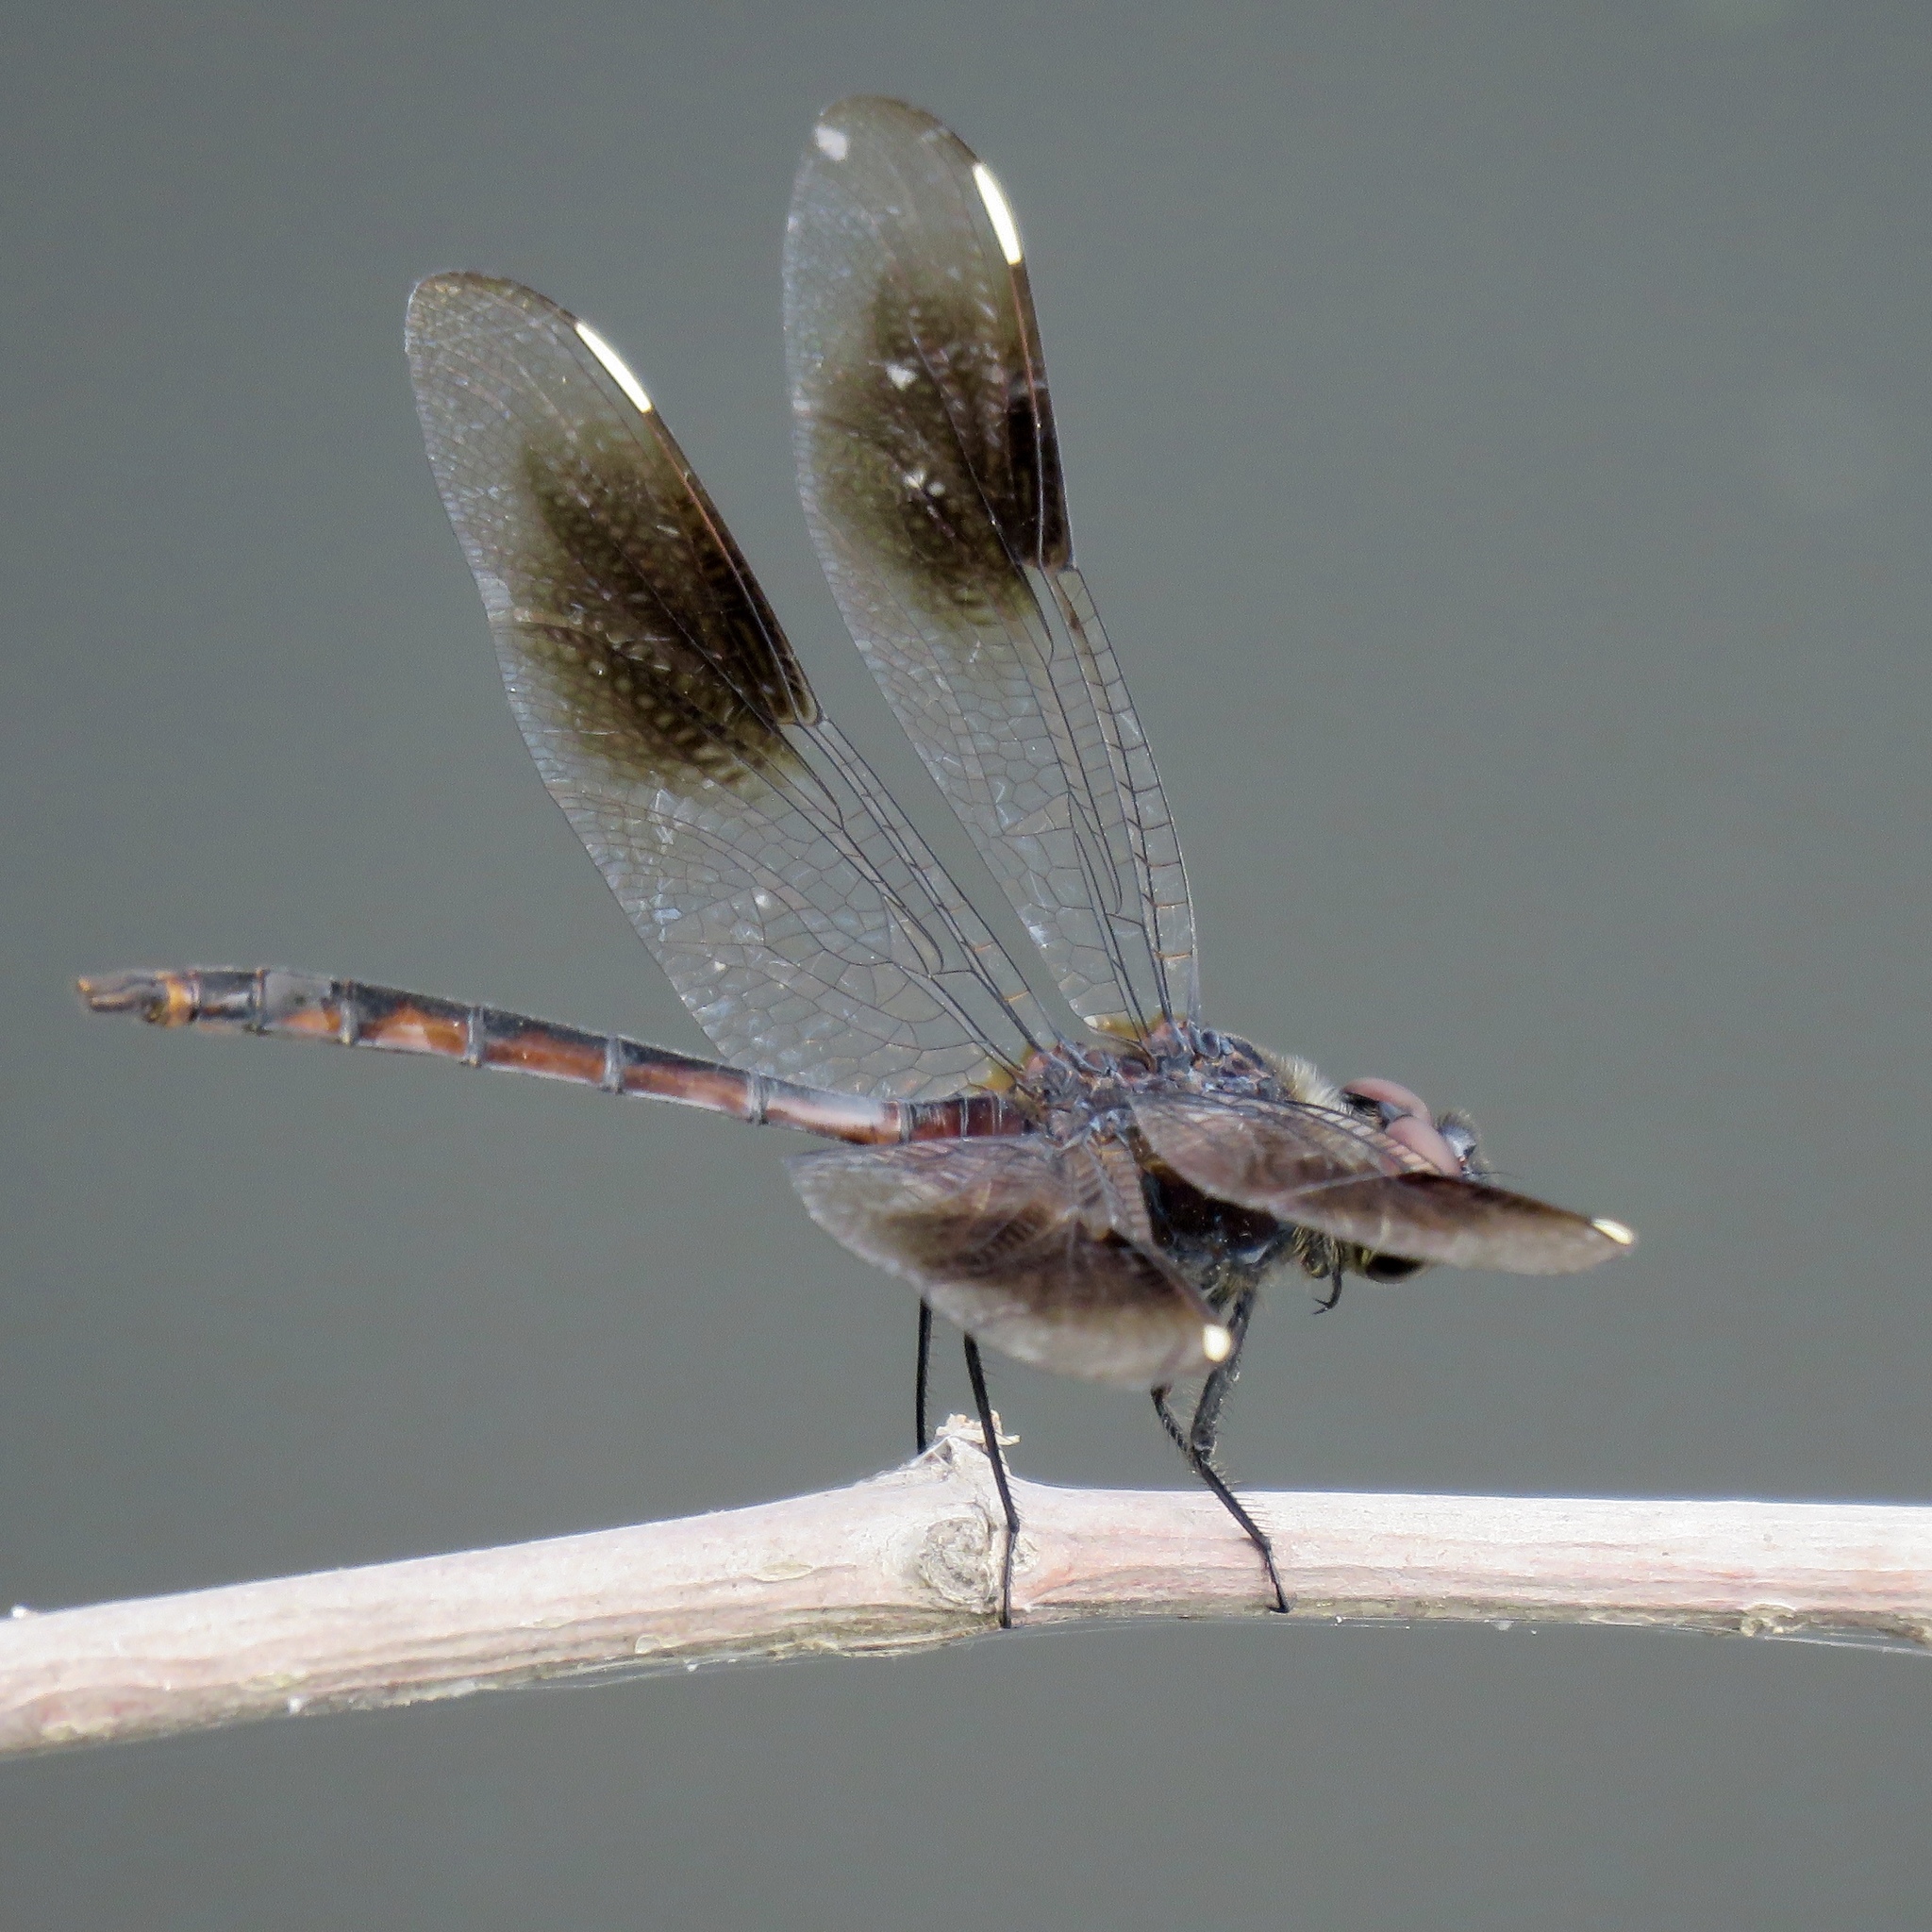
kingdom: Animalia
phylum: Arthropoda
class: Insecta
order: Odonata
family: Libellulidae
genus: Brachymesia
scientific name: Brachymesia gravida
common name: Four-spotted pennant
